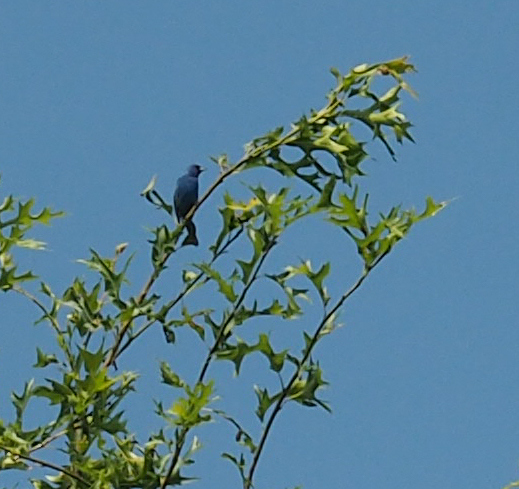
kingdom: Animalia
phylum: Chordata
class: Aves
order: Passeriformes
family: Cardinalidae
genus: Passerina
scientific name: Passerina cyanea
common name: Indigo bunting
